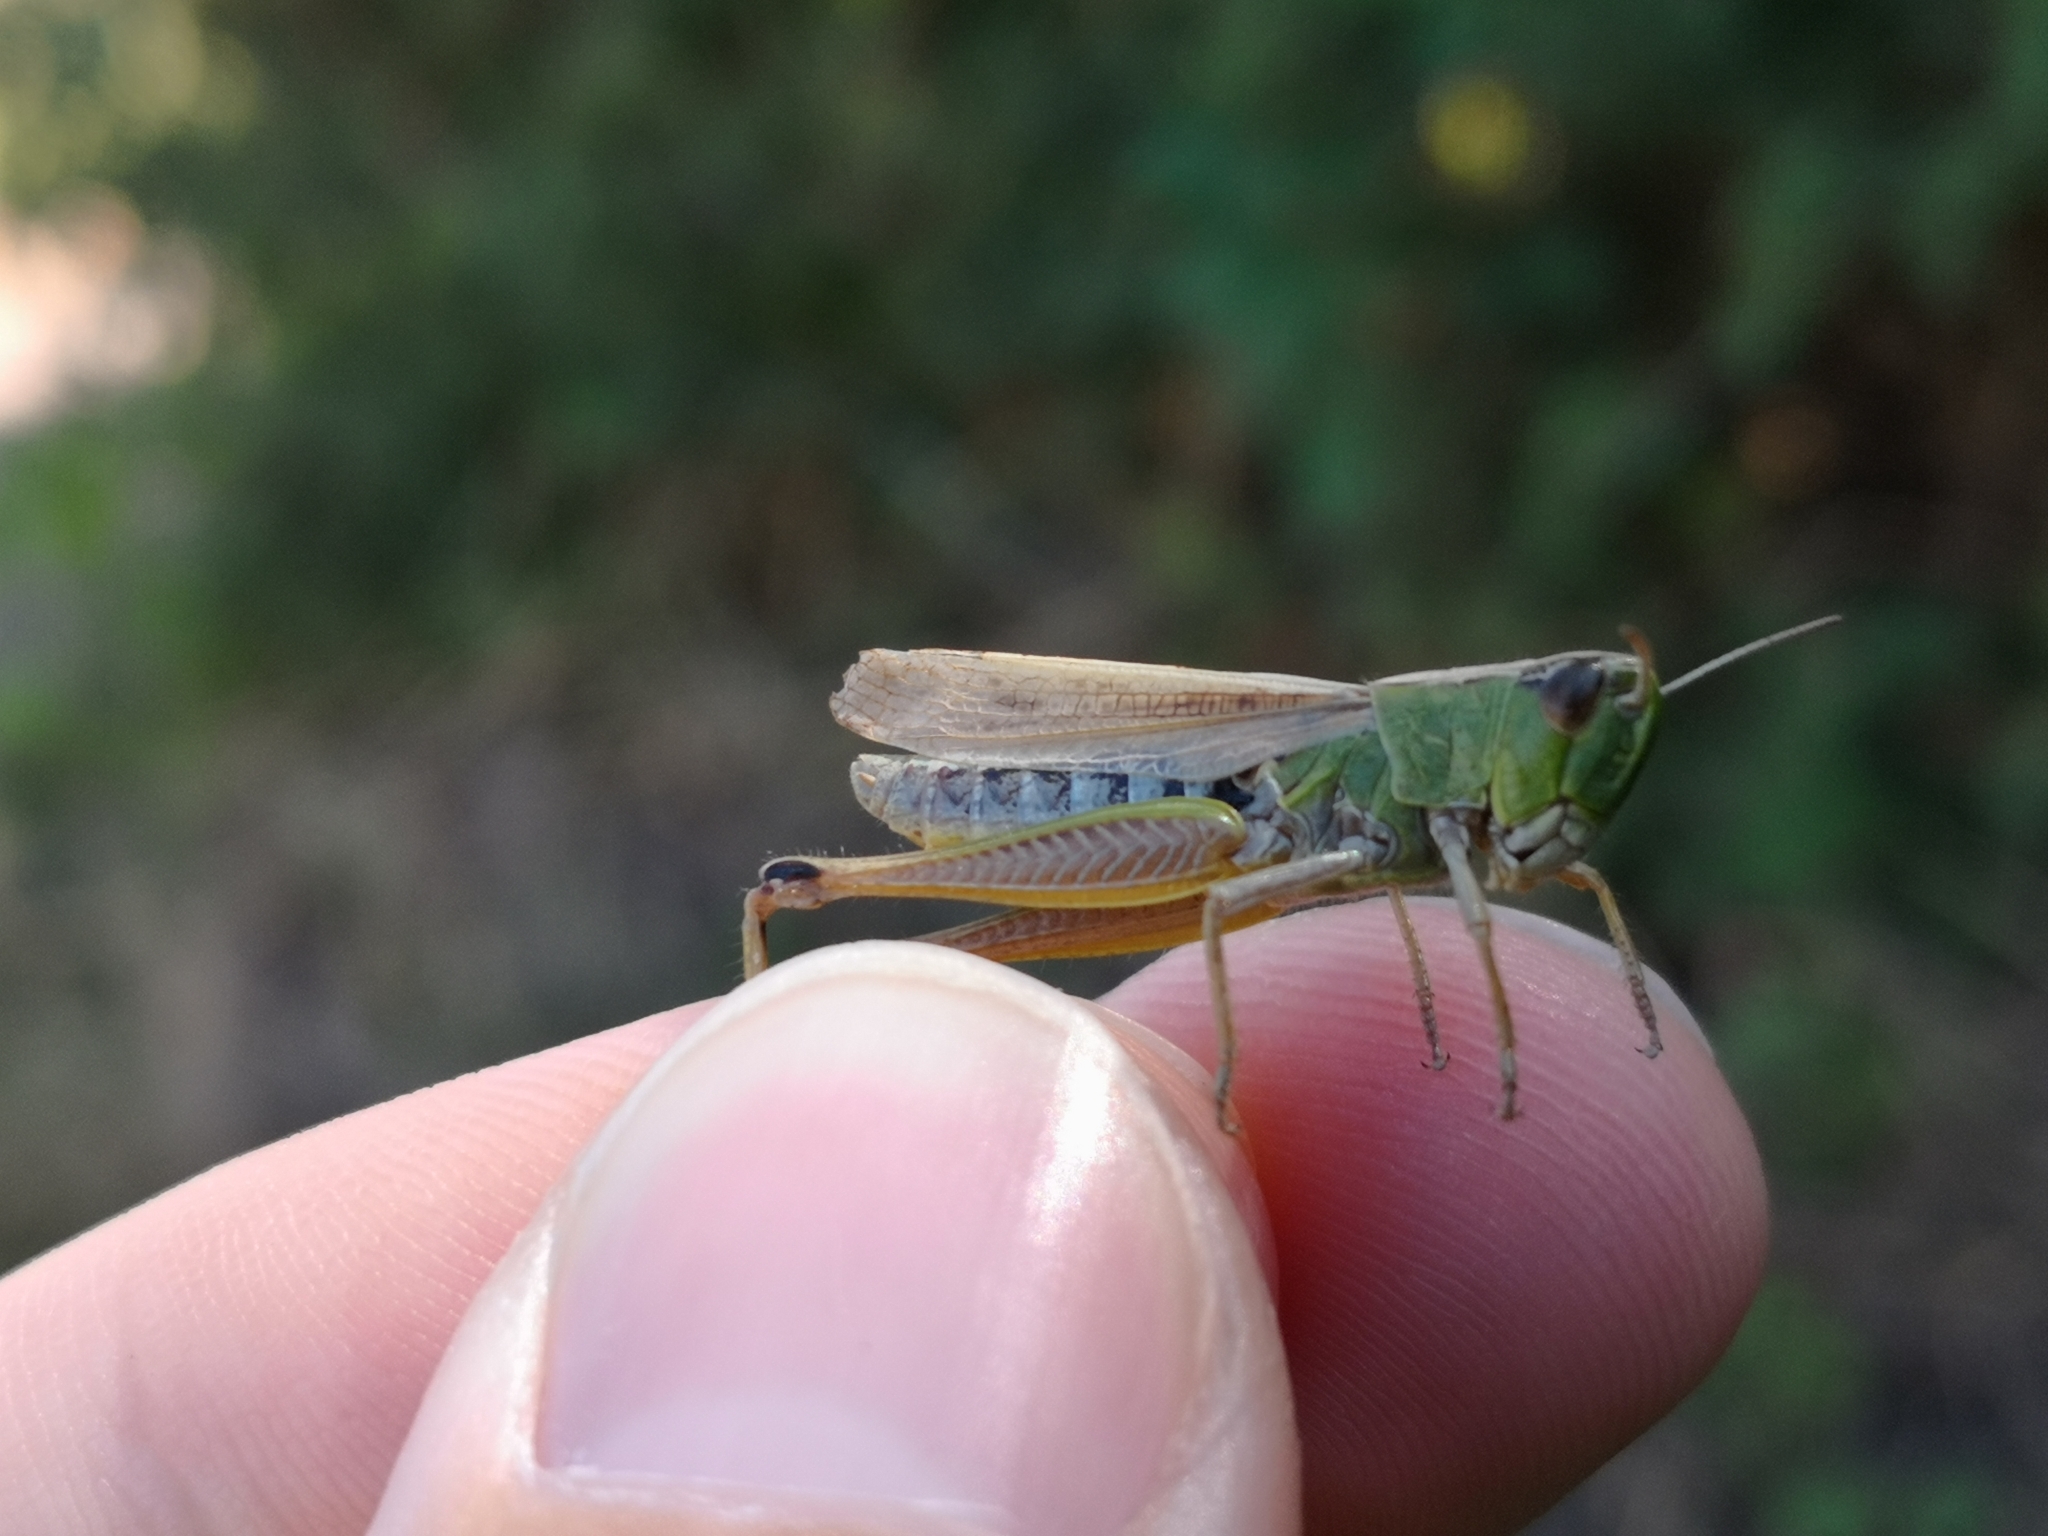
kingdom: Animalia
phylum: Arthropoda
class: Insecta
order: Orthoptera
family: Acrididae
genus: Pseudochorthippus
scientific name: Pseudochorthippus parallelus
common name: Meadow grasshopper
